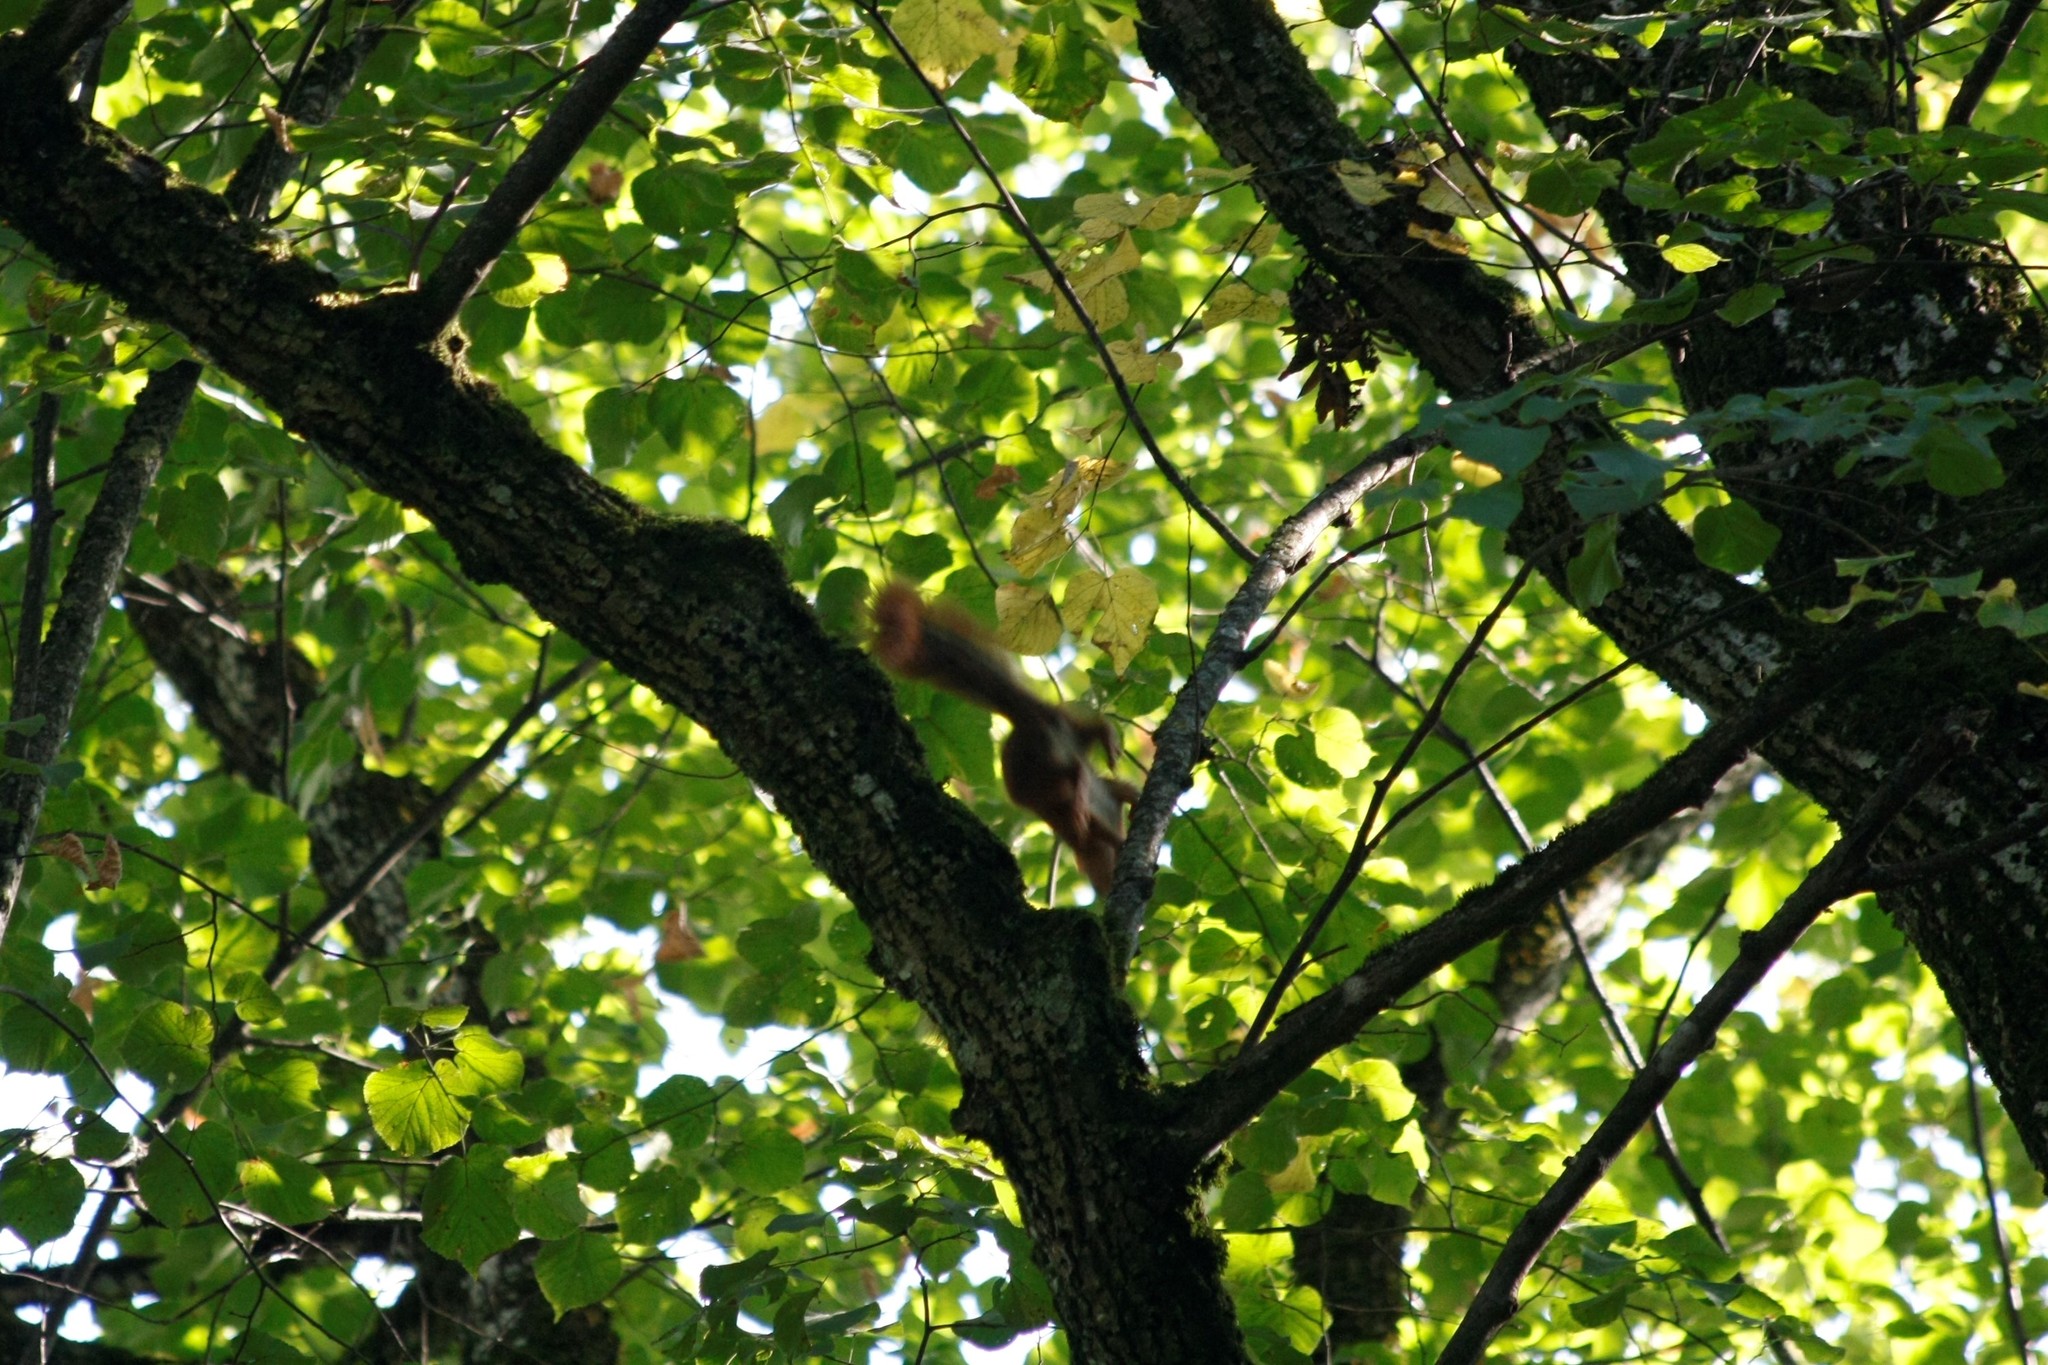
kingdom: Animalia
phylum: Chordata
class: Mammalia
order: Rodentia
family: Sciuridae
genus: Sciurus
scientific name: Sciurus vulgaris
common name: Eurasian red squirrel
